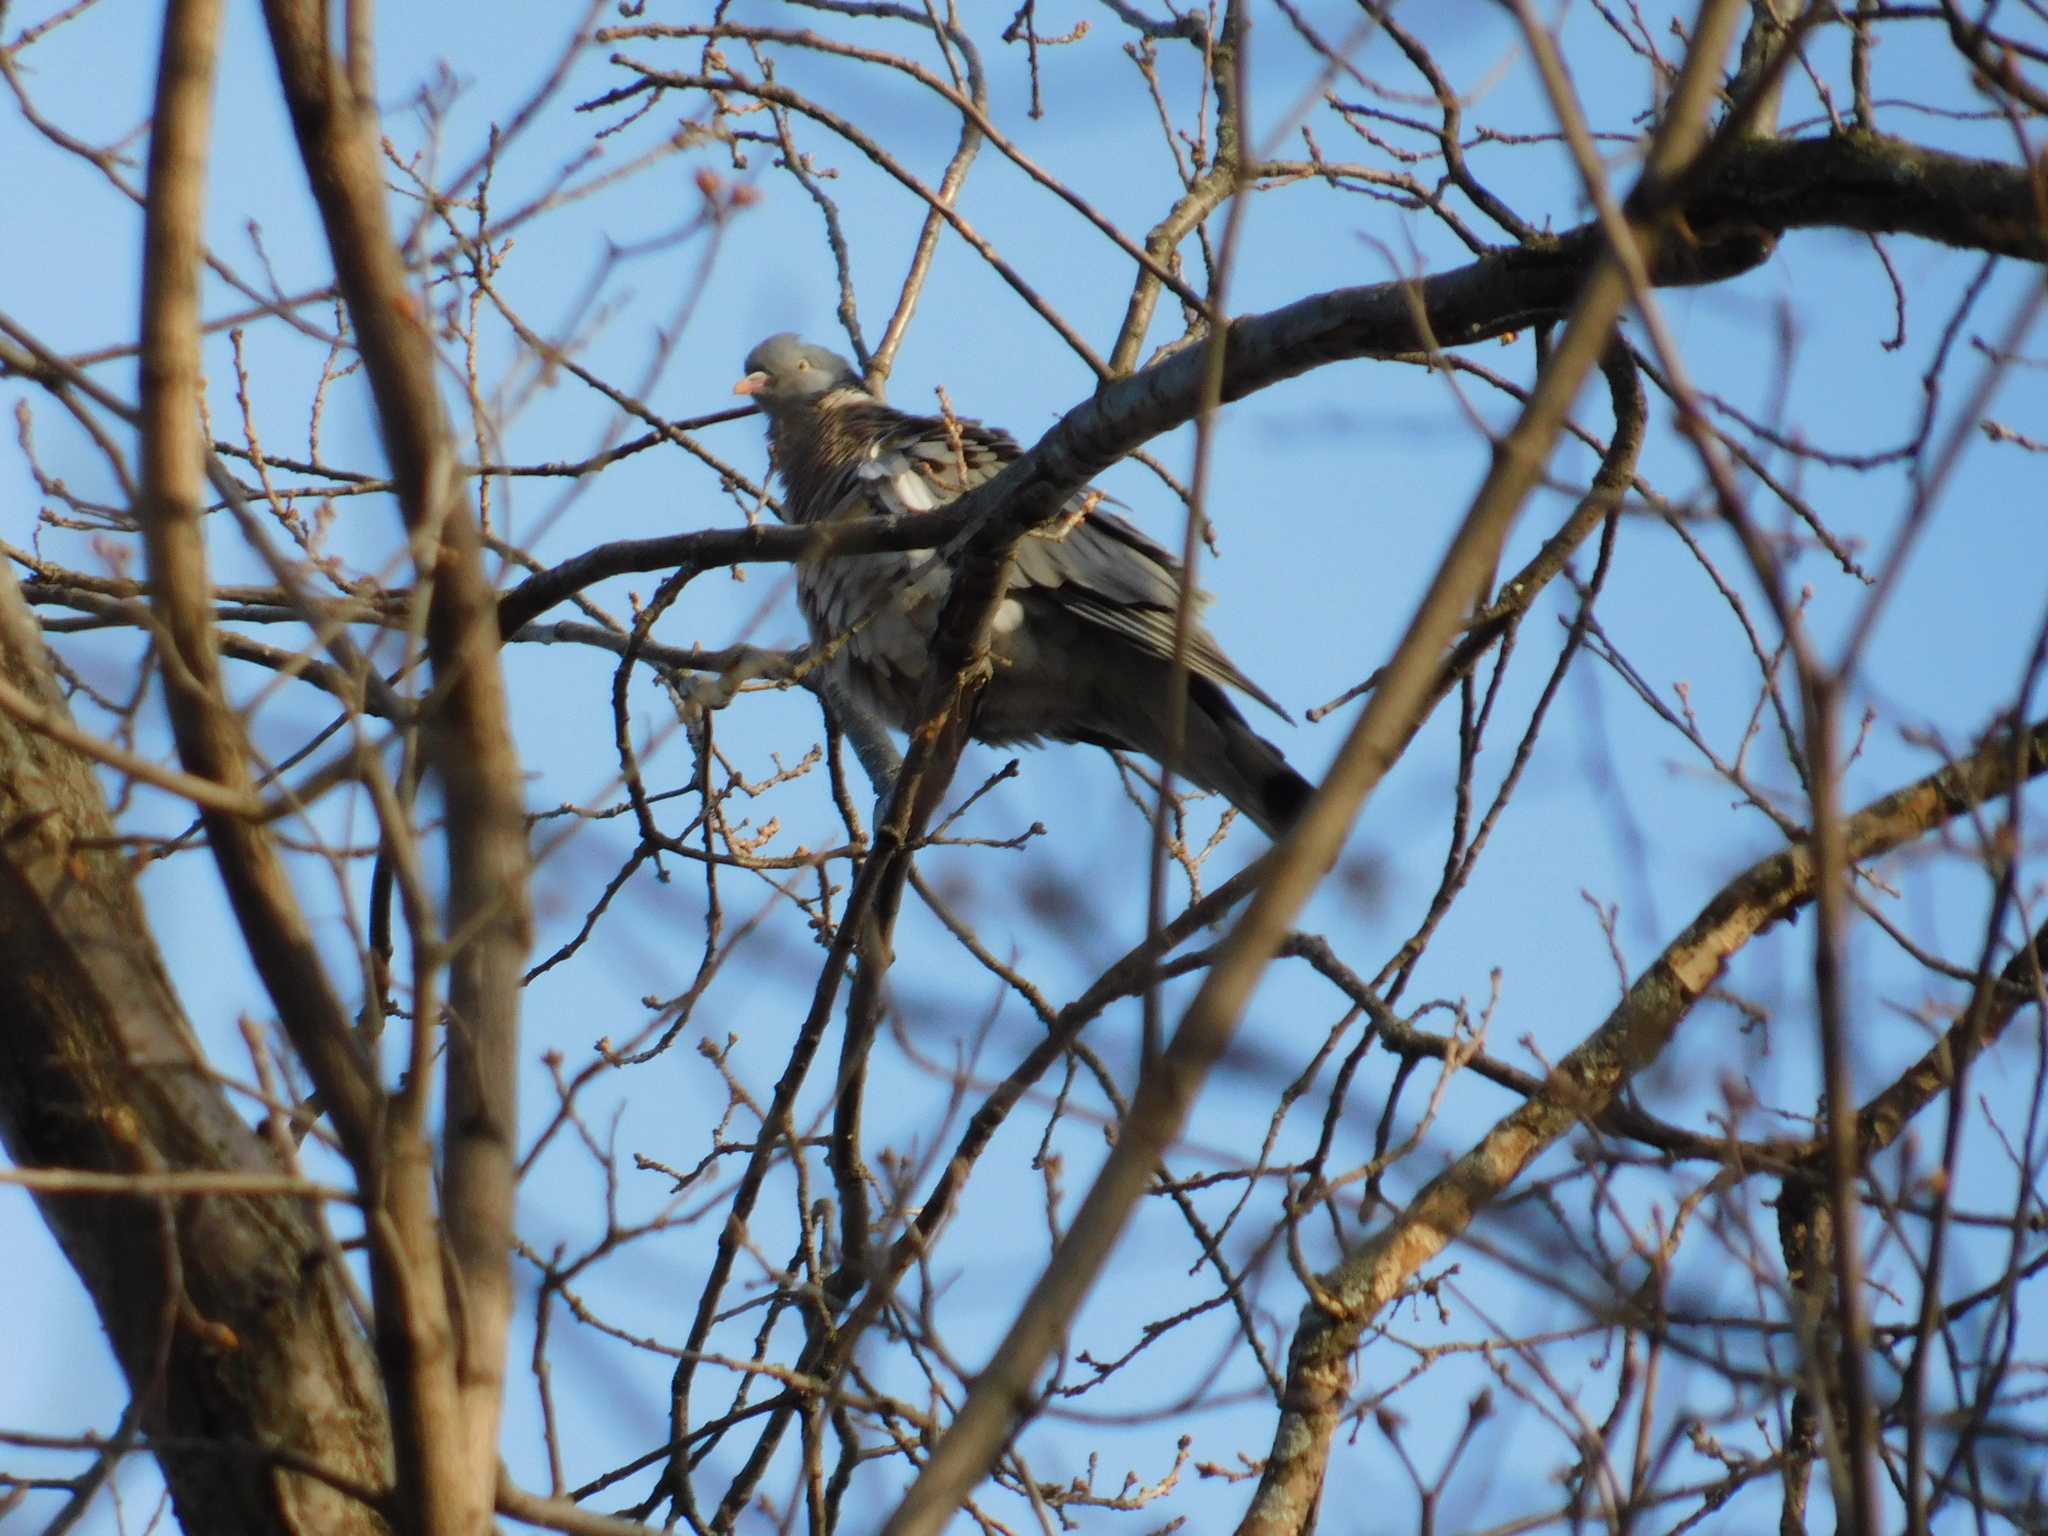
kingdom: Animalia
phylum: Chordata
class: Aves
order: Columbiformes
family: Columbidae
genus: Columba
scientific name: Columba palumbus
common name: Common wood pigeon
